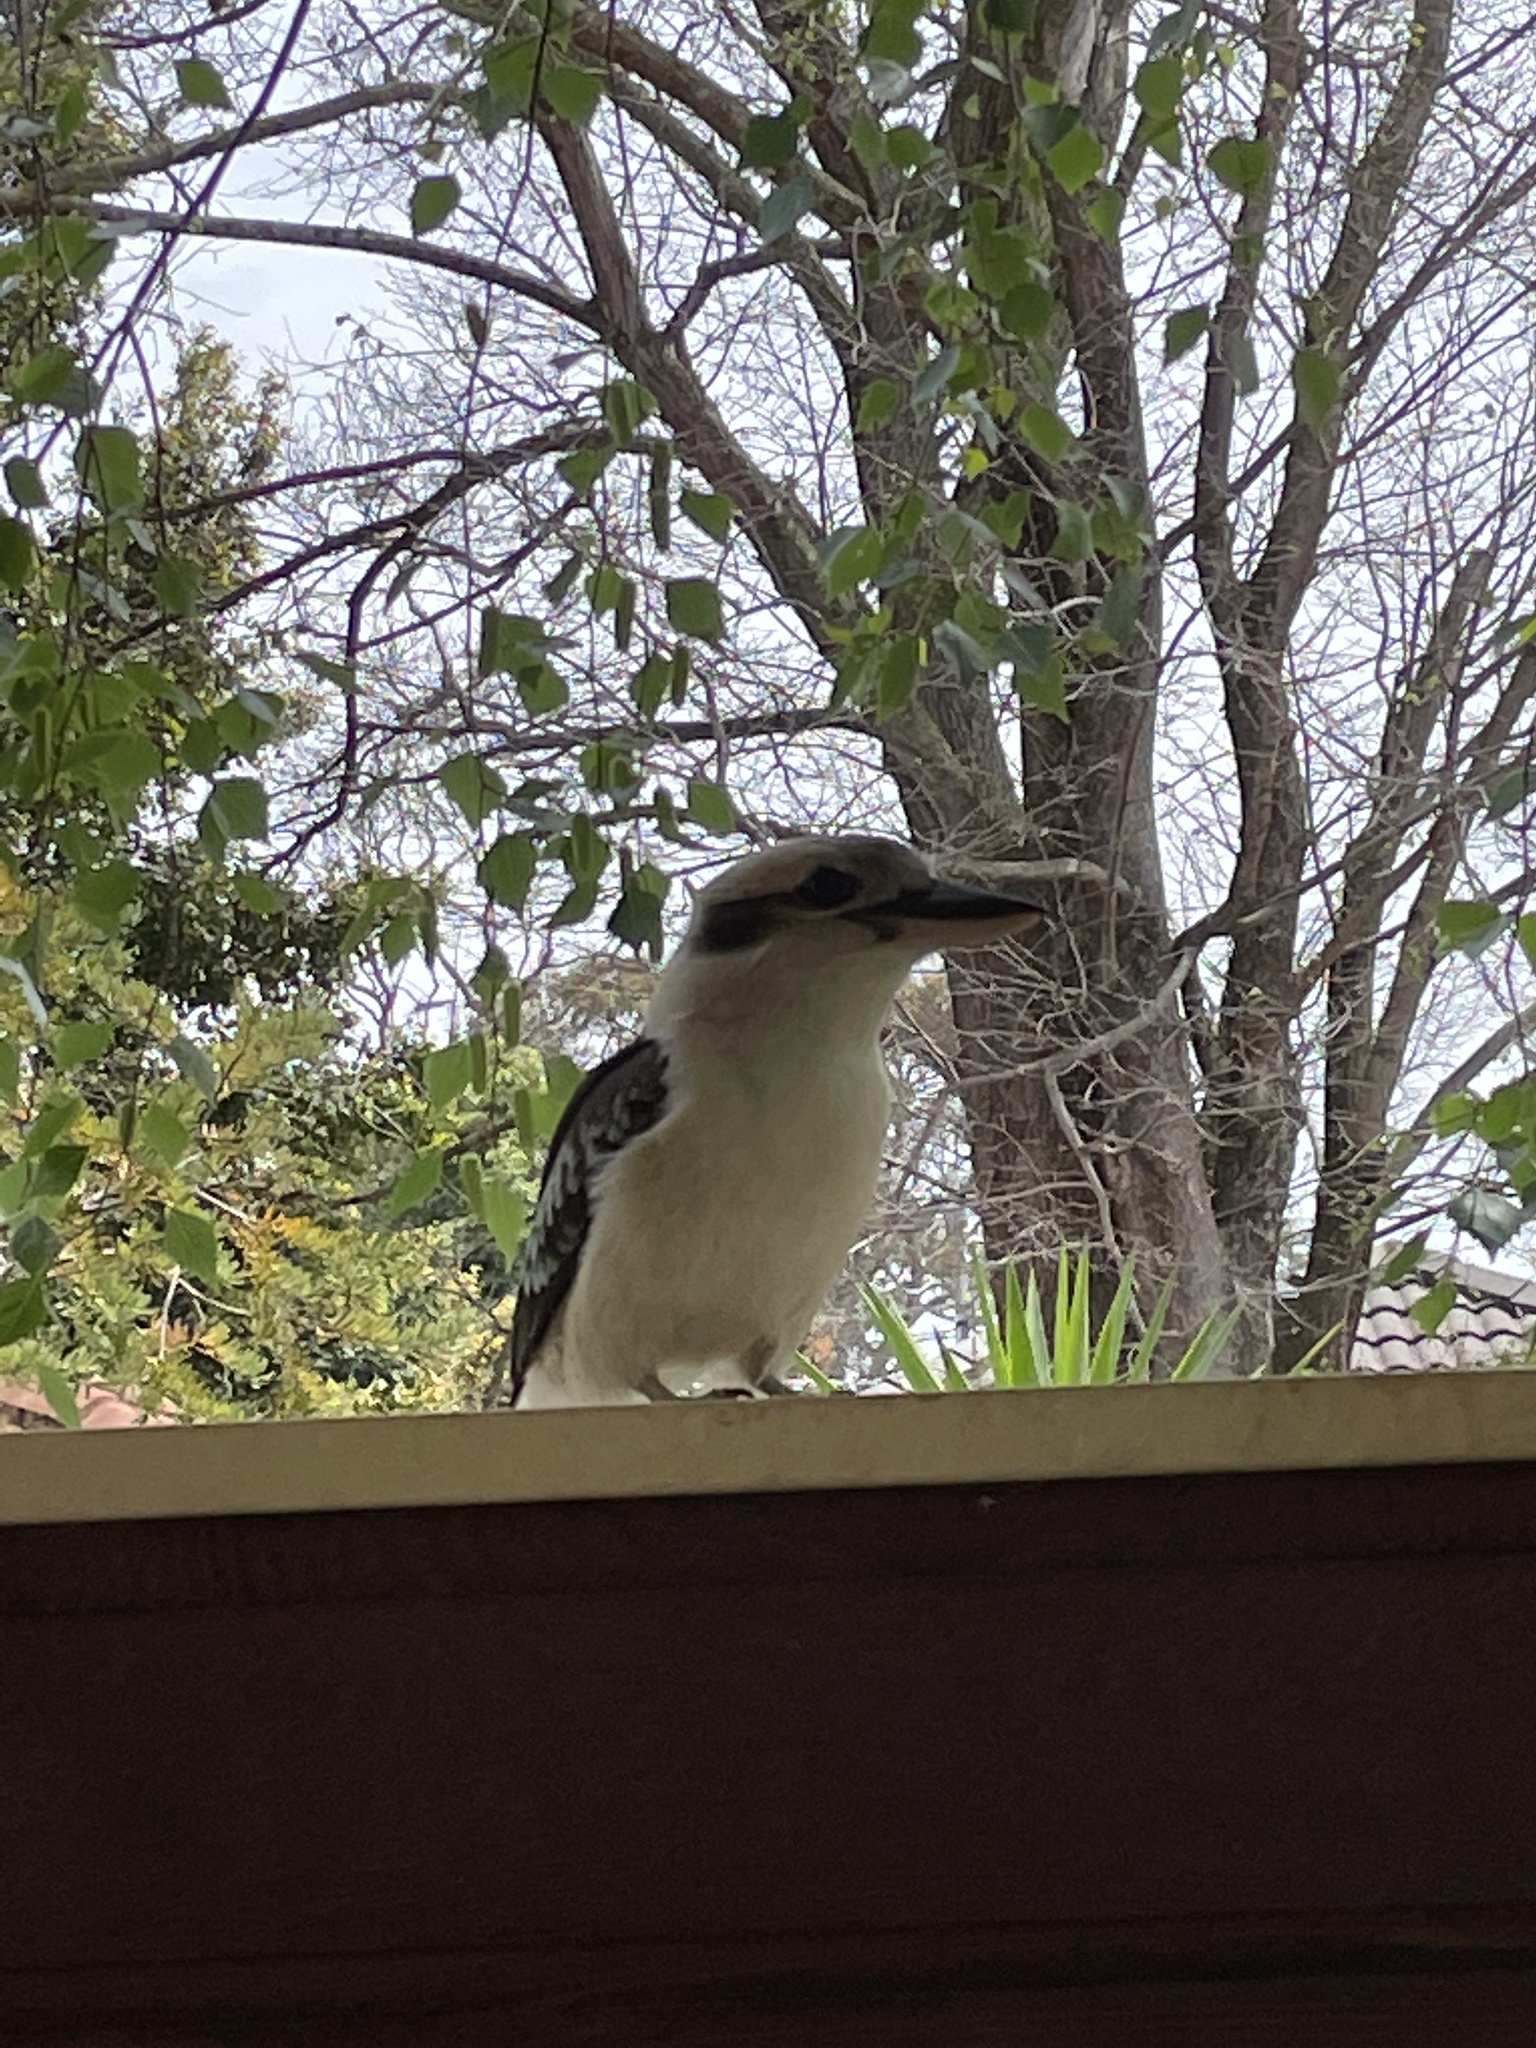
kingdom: Animalia
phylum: Chordata
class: Aves
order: Coraciiformes
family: Alcedinidae
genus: Dacelo
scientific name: Dacelo novaeguineae
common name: Laughing kookaburra
